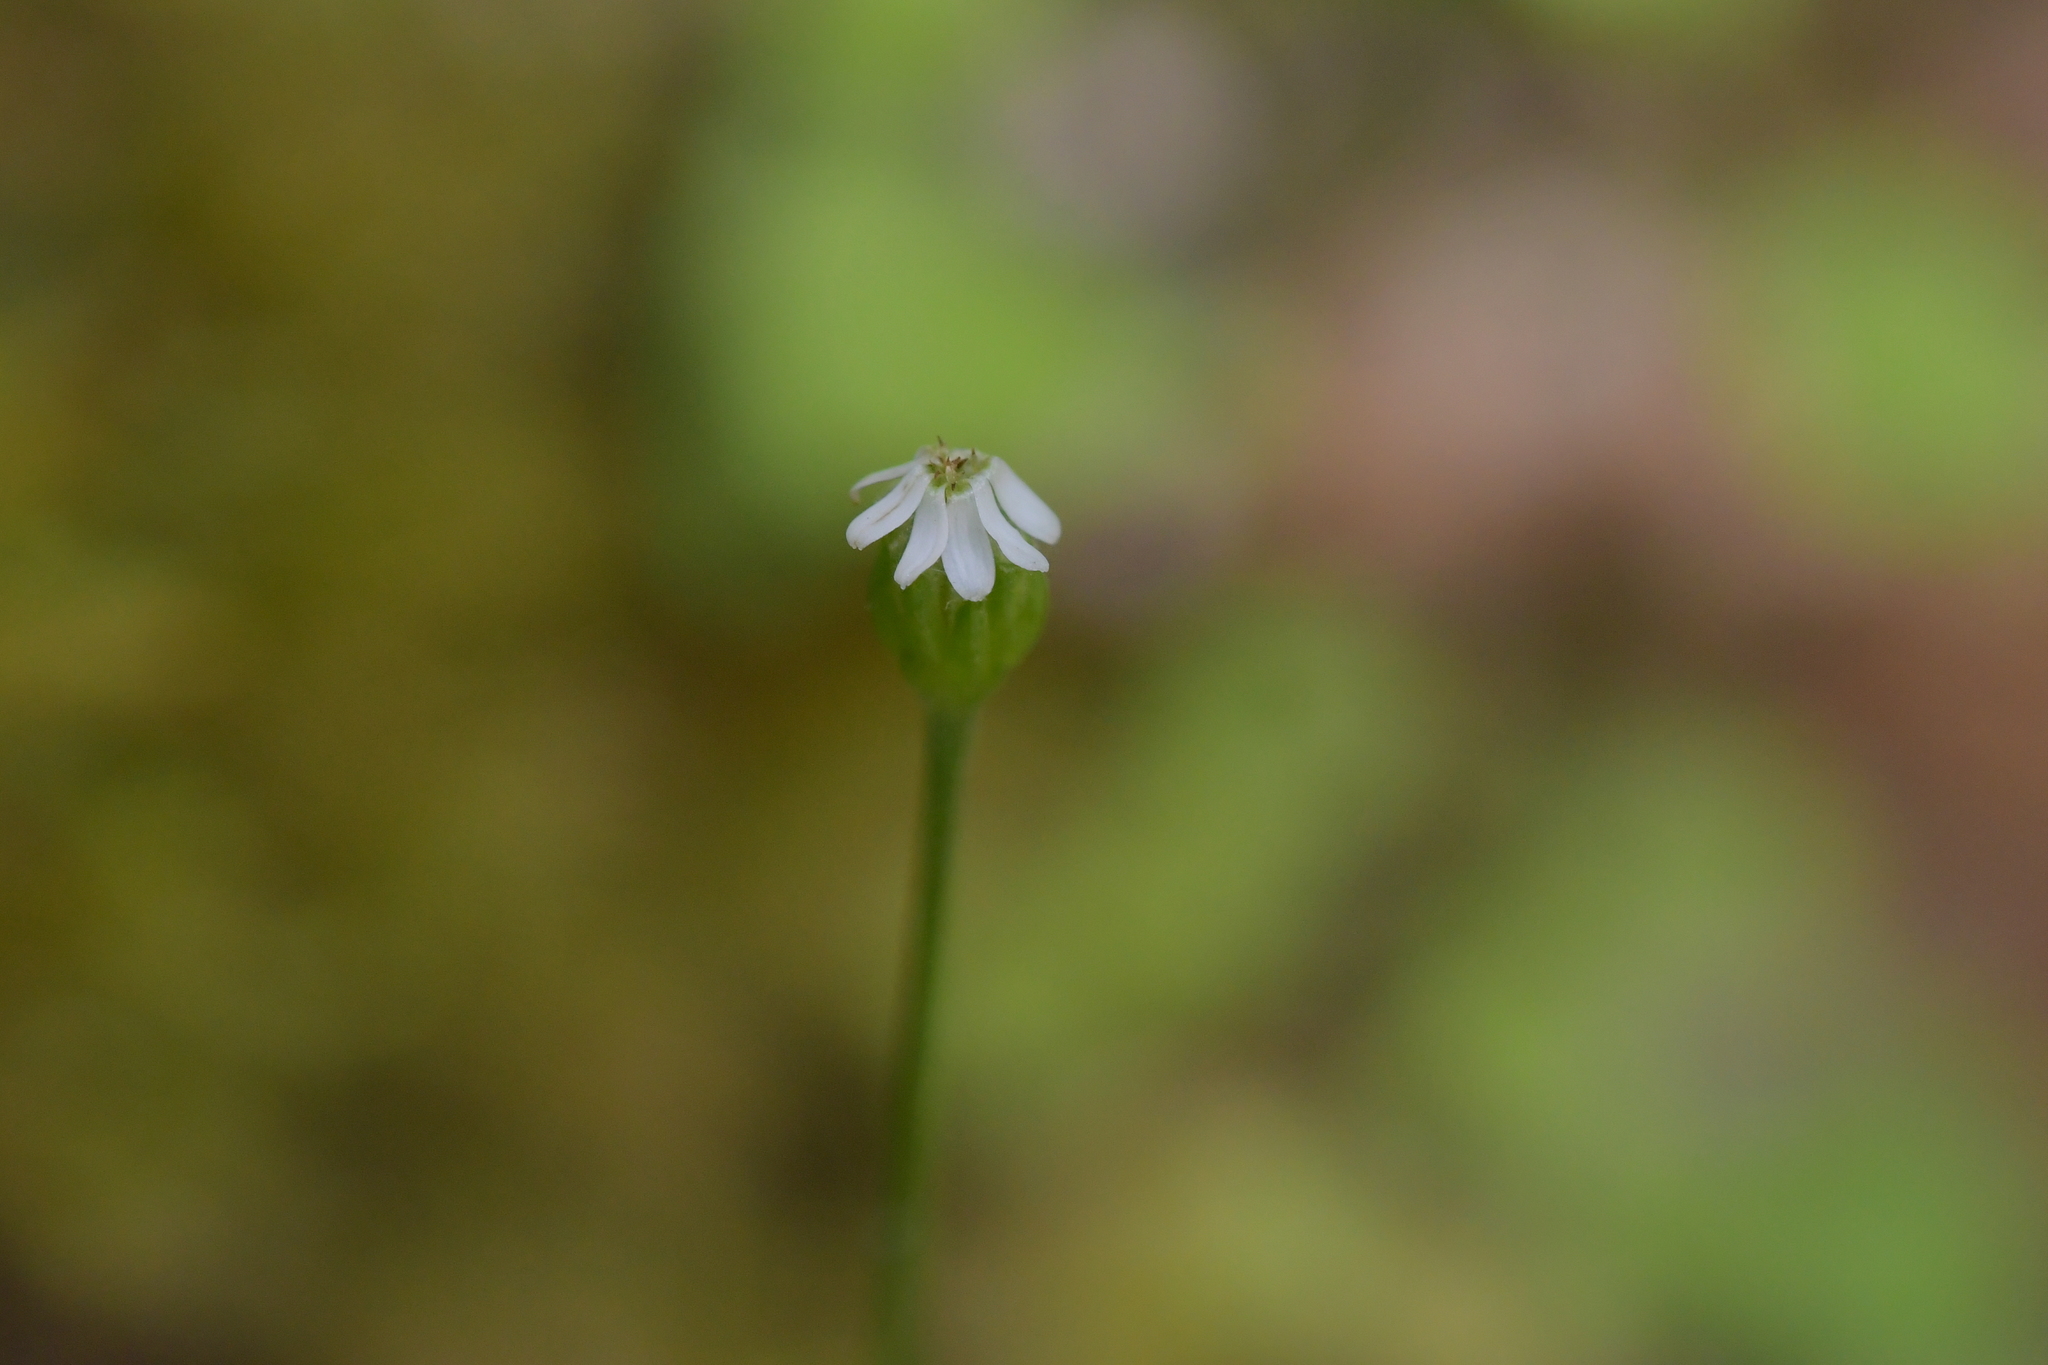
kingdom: Plantae
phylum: Tracheophyta
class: Magnoliopsida
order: Asterales
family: Asteraceae
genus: Lagenophora
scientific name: Lagenophora strangulata
